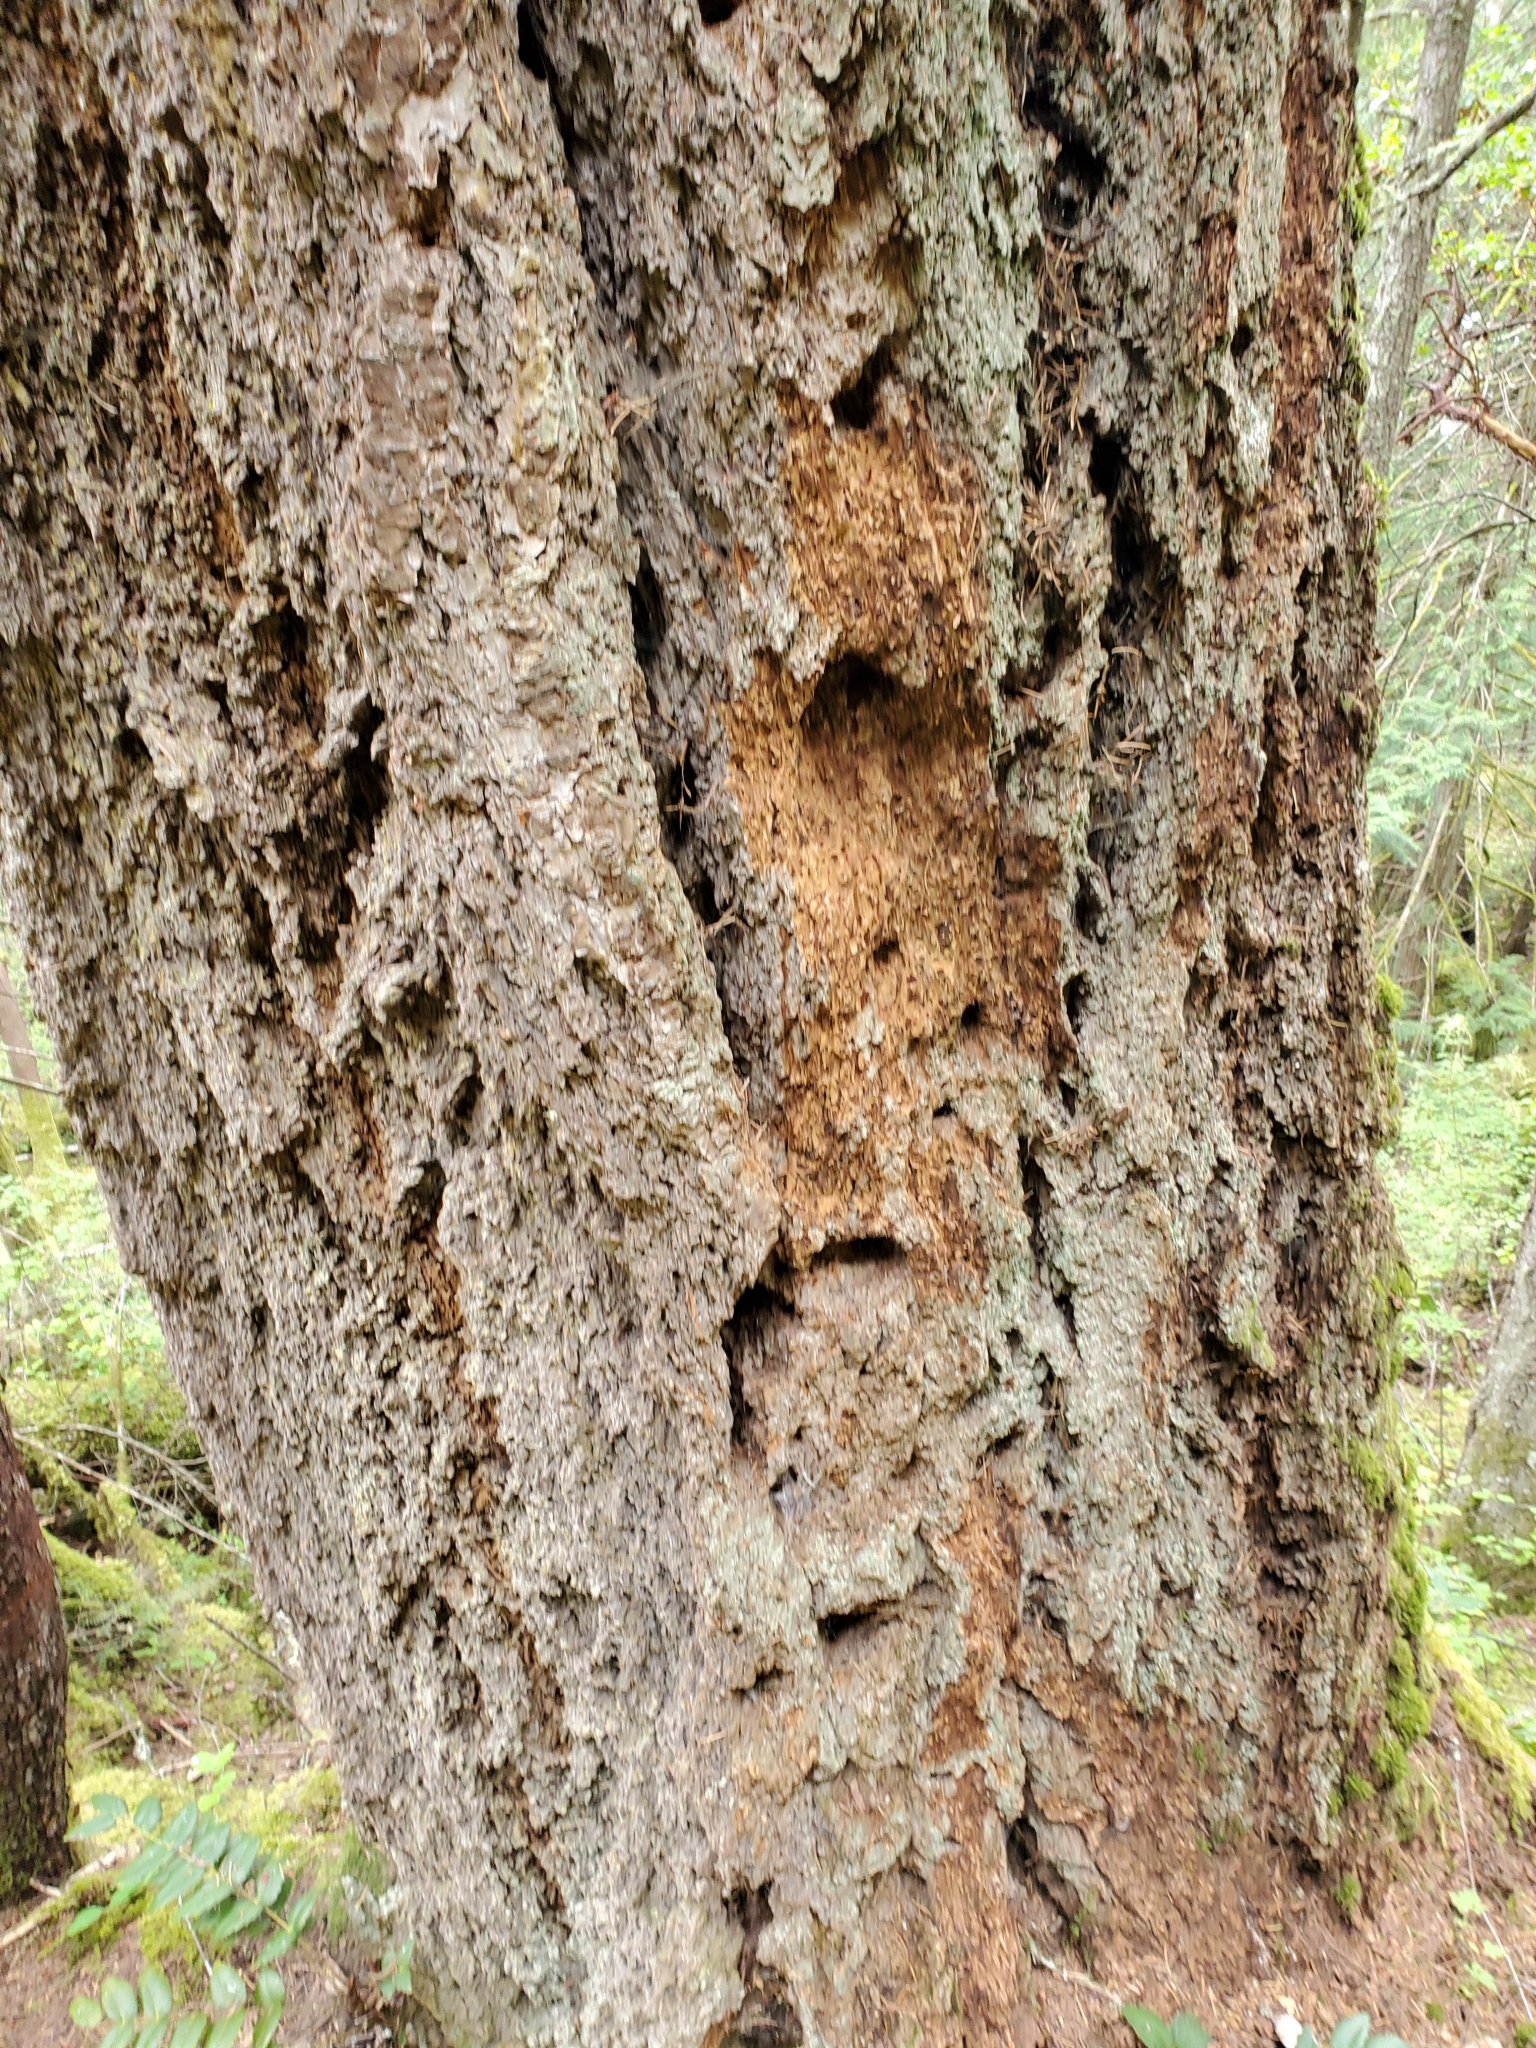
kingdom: Plantae
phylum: Tracheophyta
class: Pinopsida
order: Pinales
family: Pinaceae
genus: Pseudotsuga
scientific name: Pseudotsuga menziesii
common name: Douglas fir
